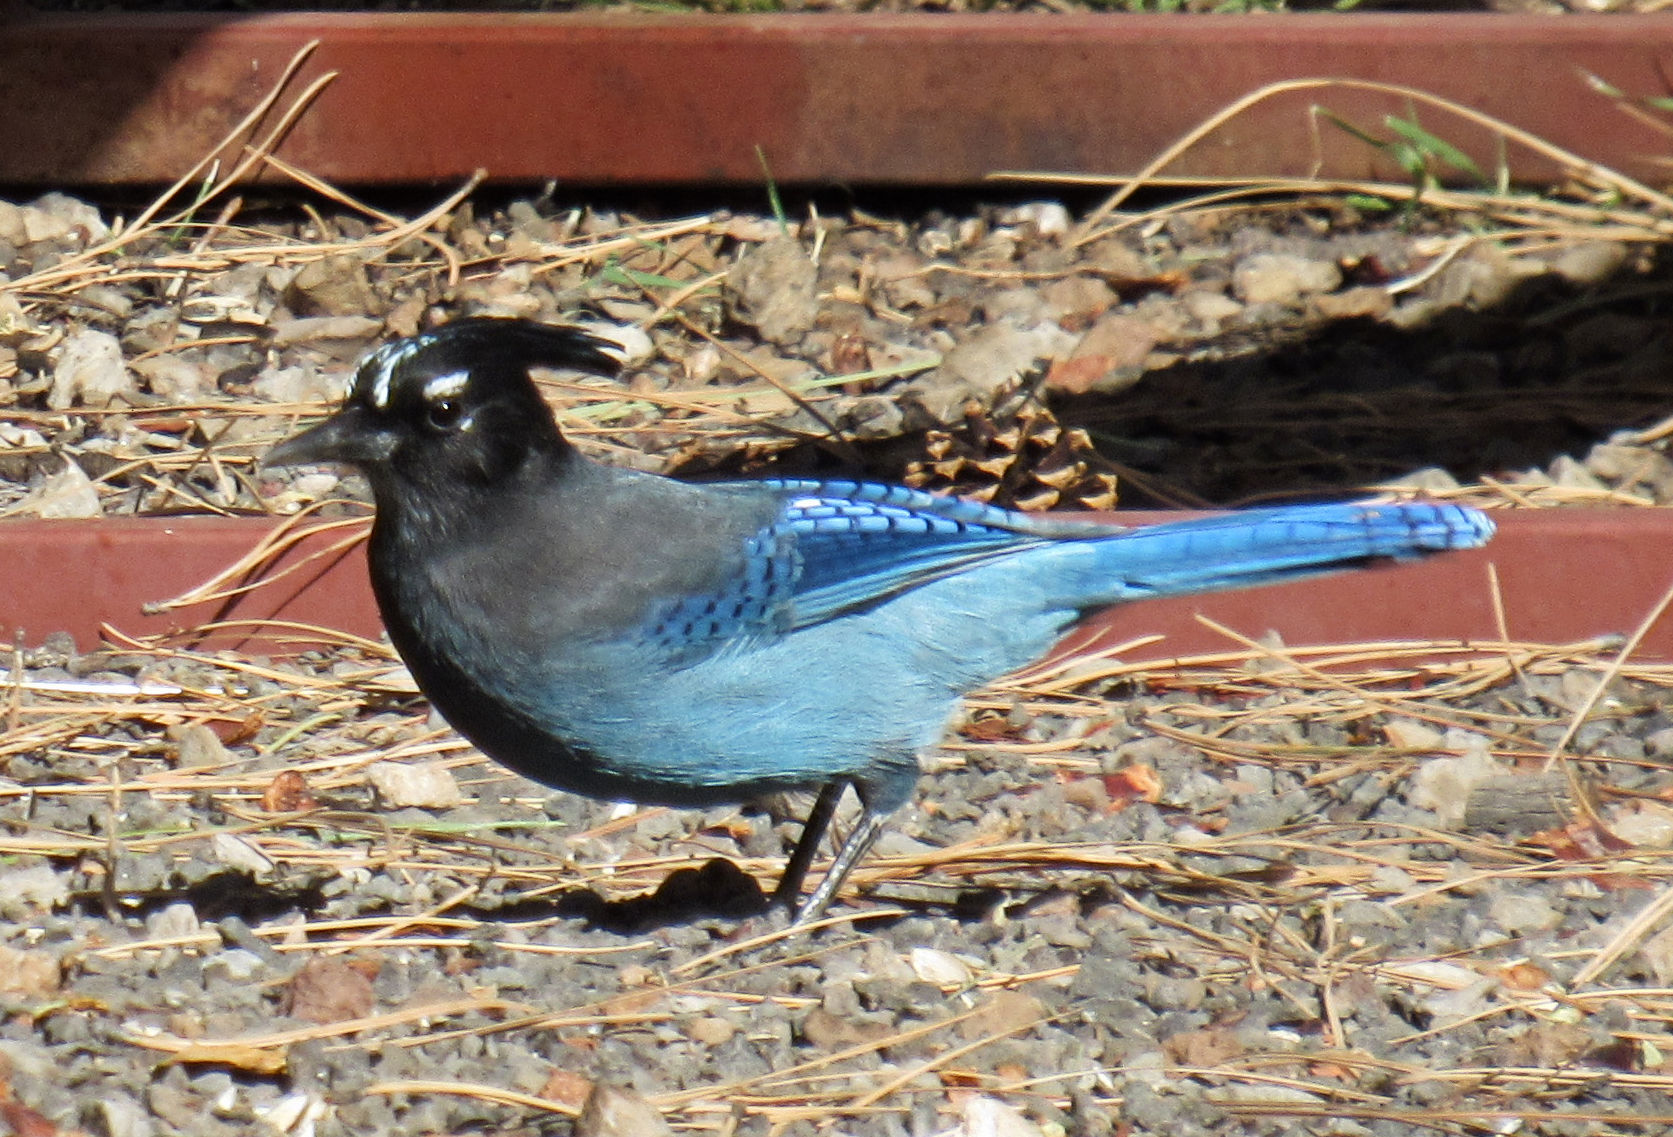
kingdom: Animalia
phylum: Chordata
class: Aves
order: Passeriformes
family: Corvidae
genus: Cyanocitta
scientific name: Cyanocitta stelleri
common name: Steller's jay
